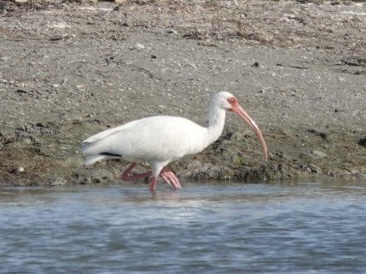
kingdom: Animalia
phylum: Chordata
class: Aves
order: Pelecaniformes
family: Threskiornithidae
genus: Eudocimus
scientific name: Eudocimus albus
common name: White ibis
